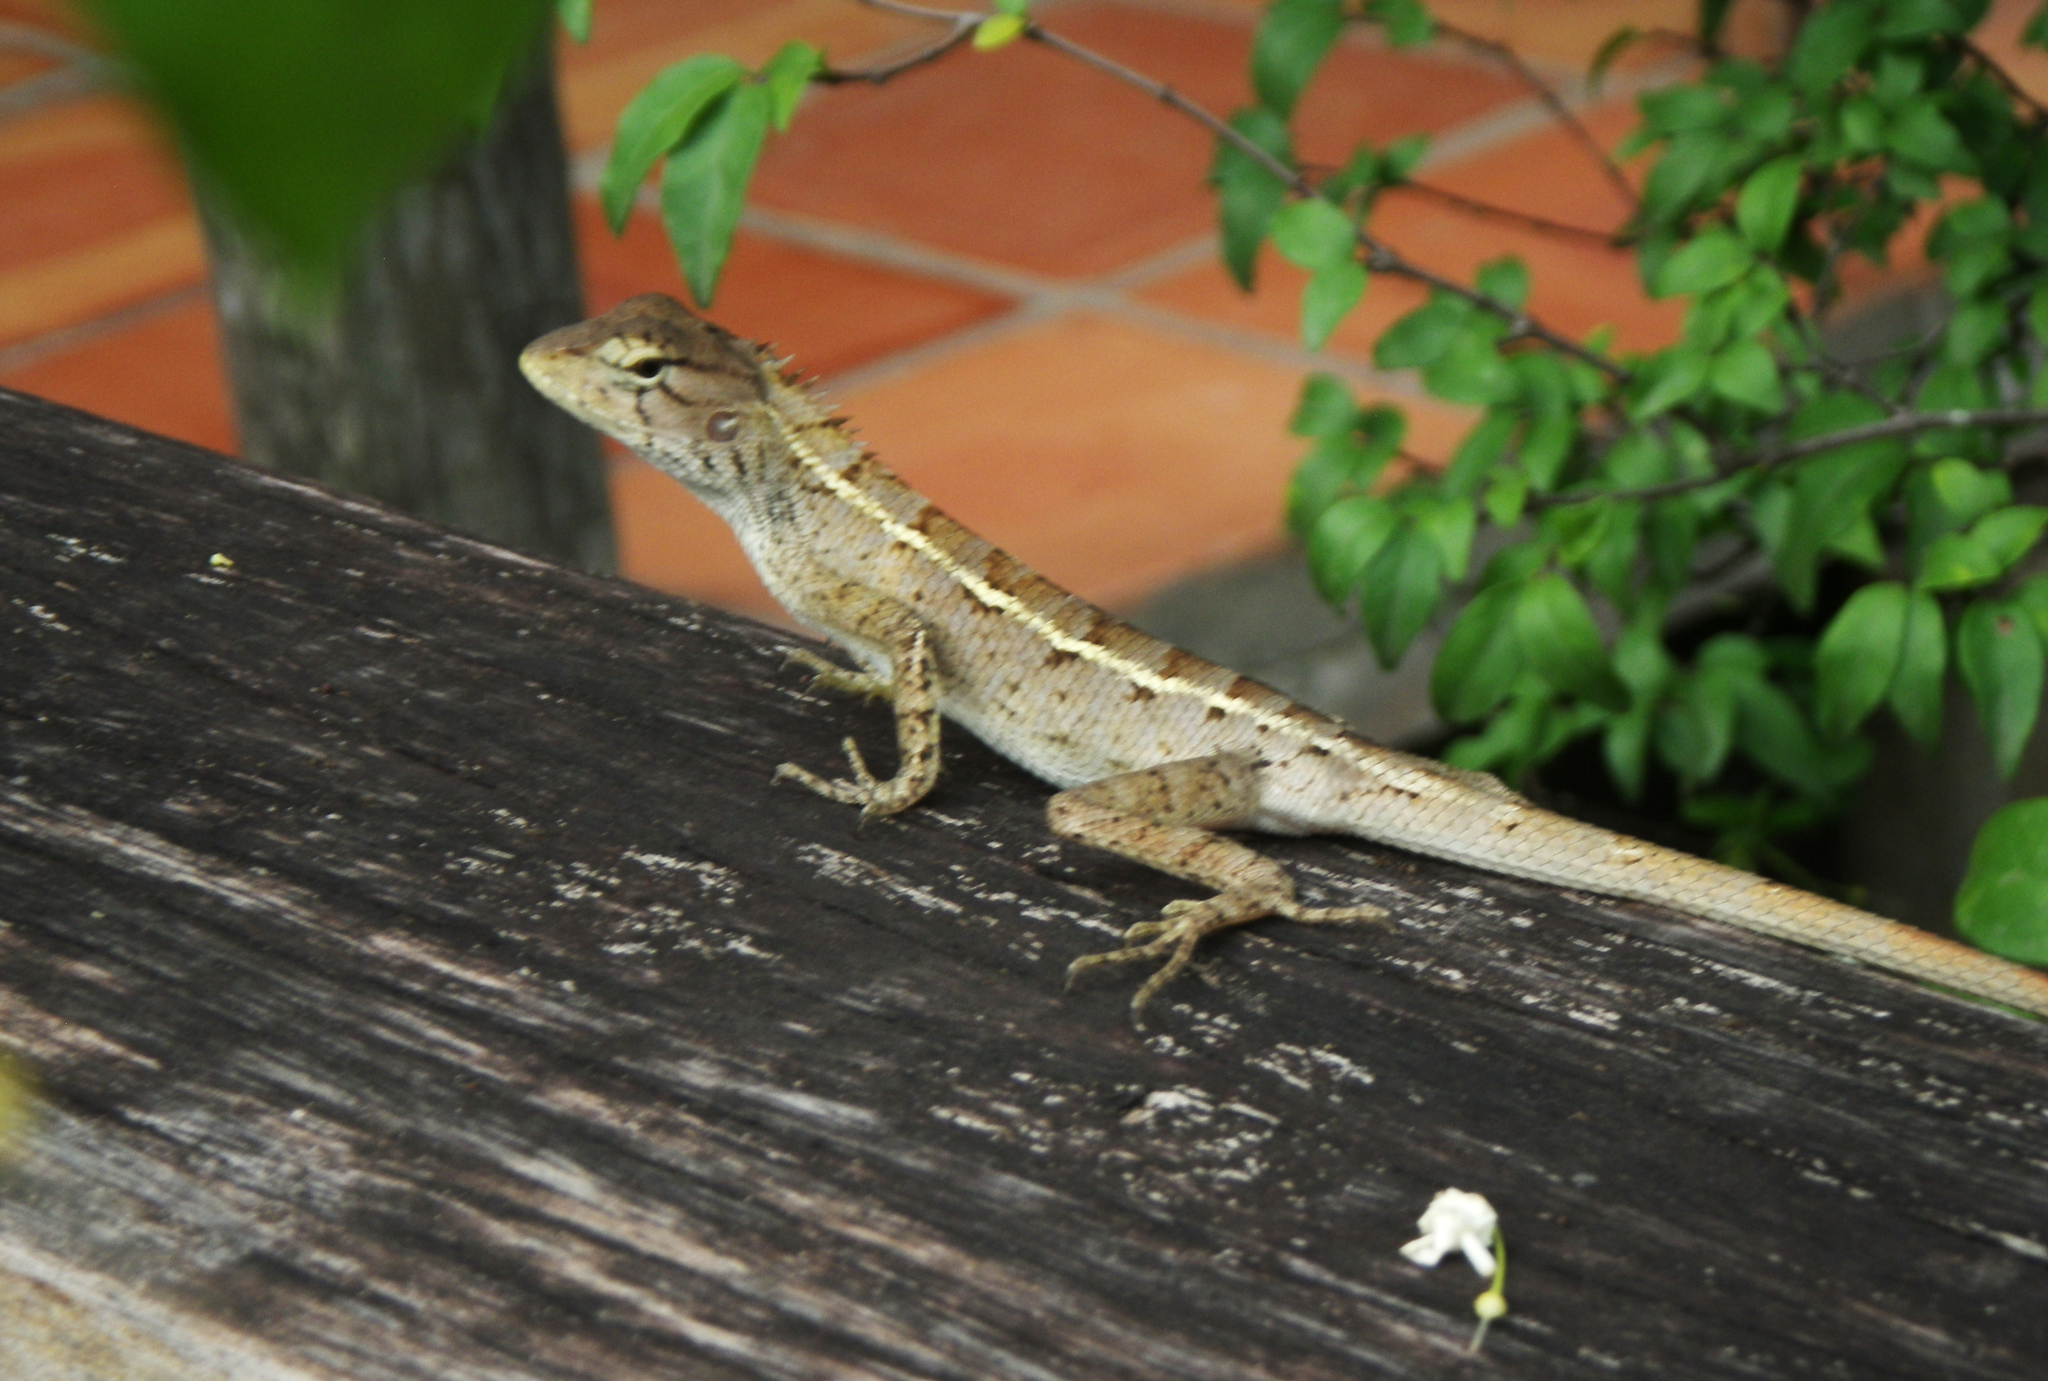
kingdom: Animalia
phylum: Chordata
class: Squamata
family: Agamidae
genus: Calotes
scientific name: Calotes versicolor
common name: Oriental garden lizard
